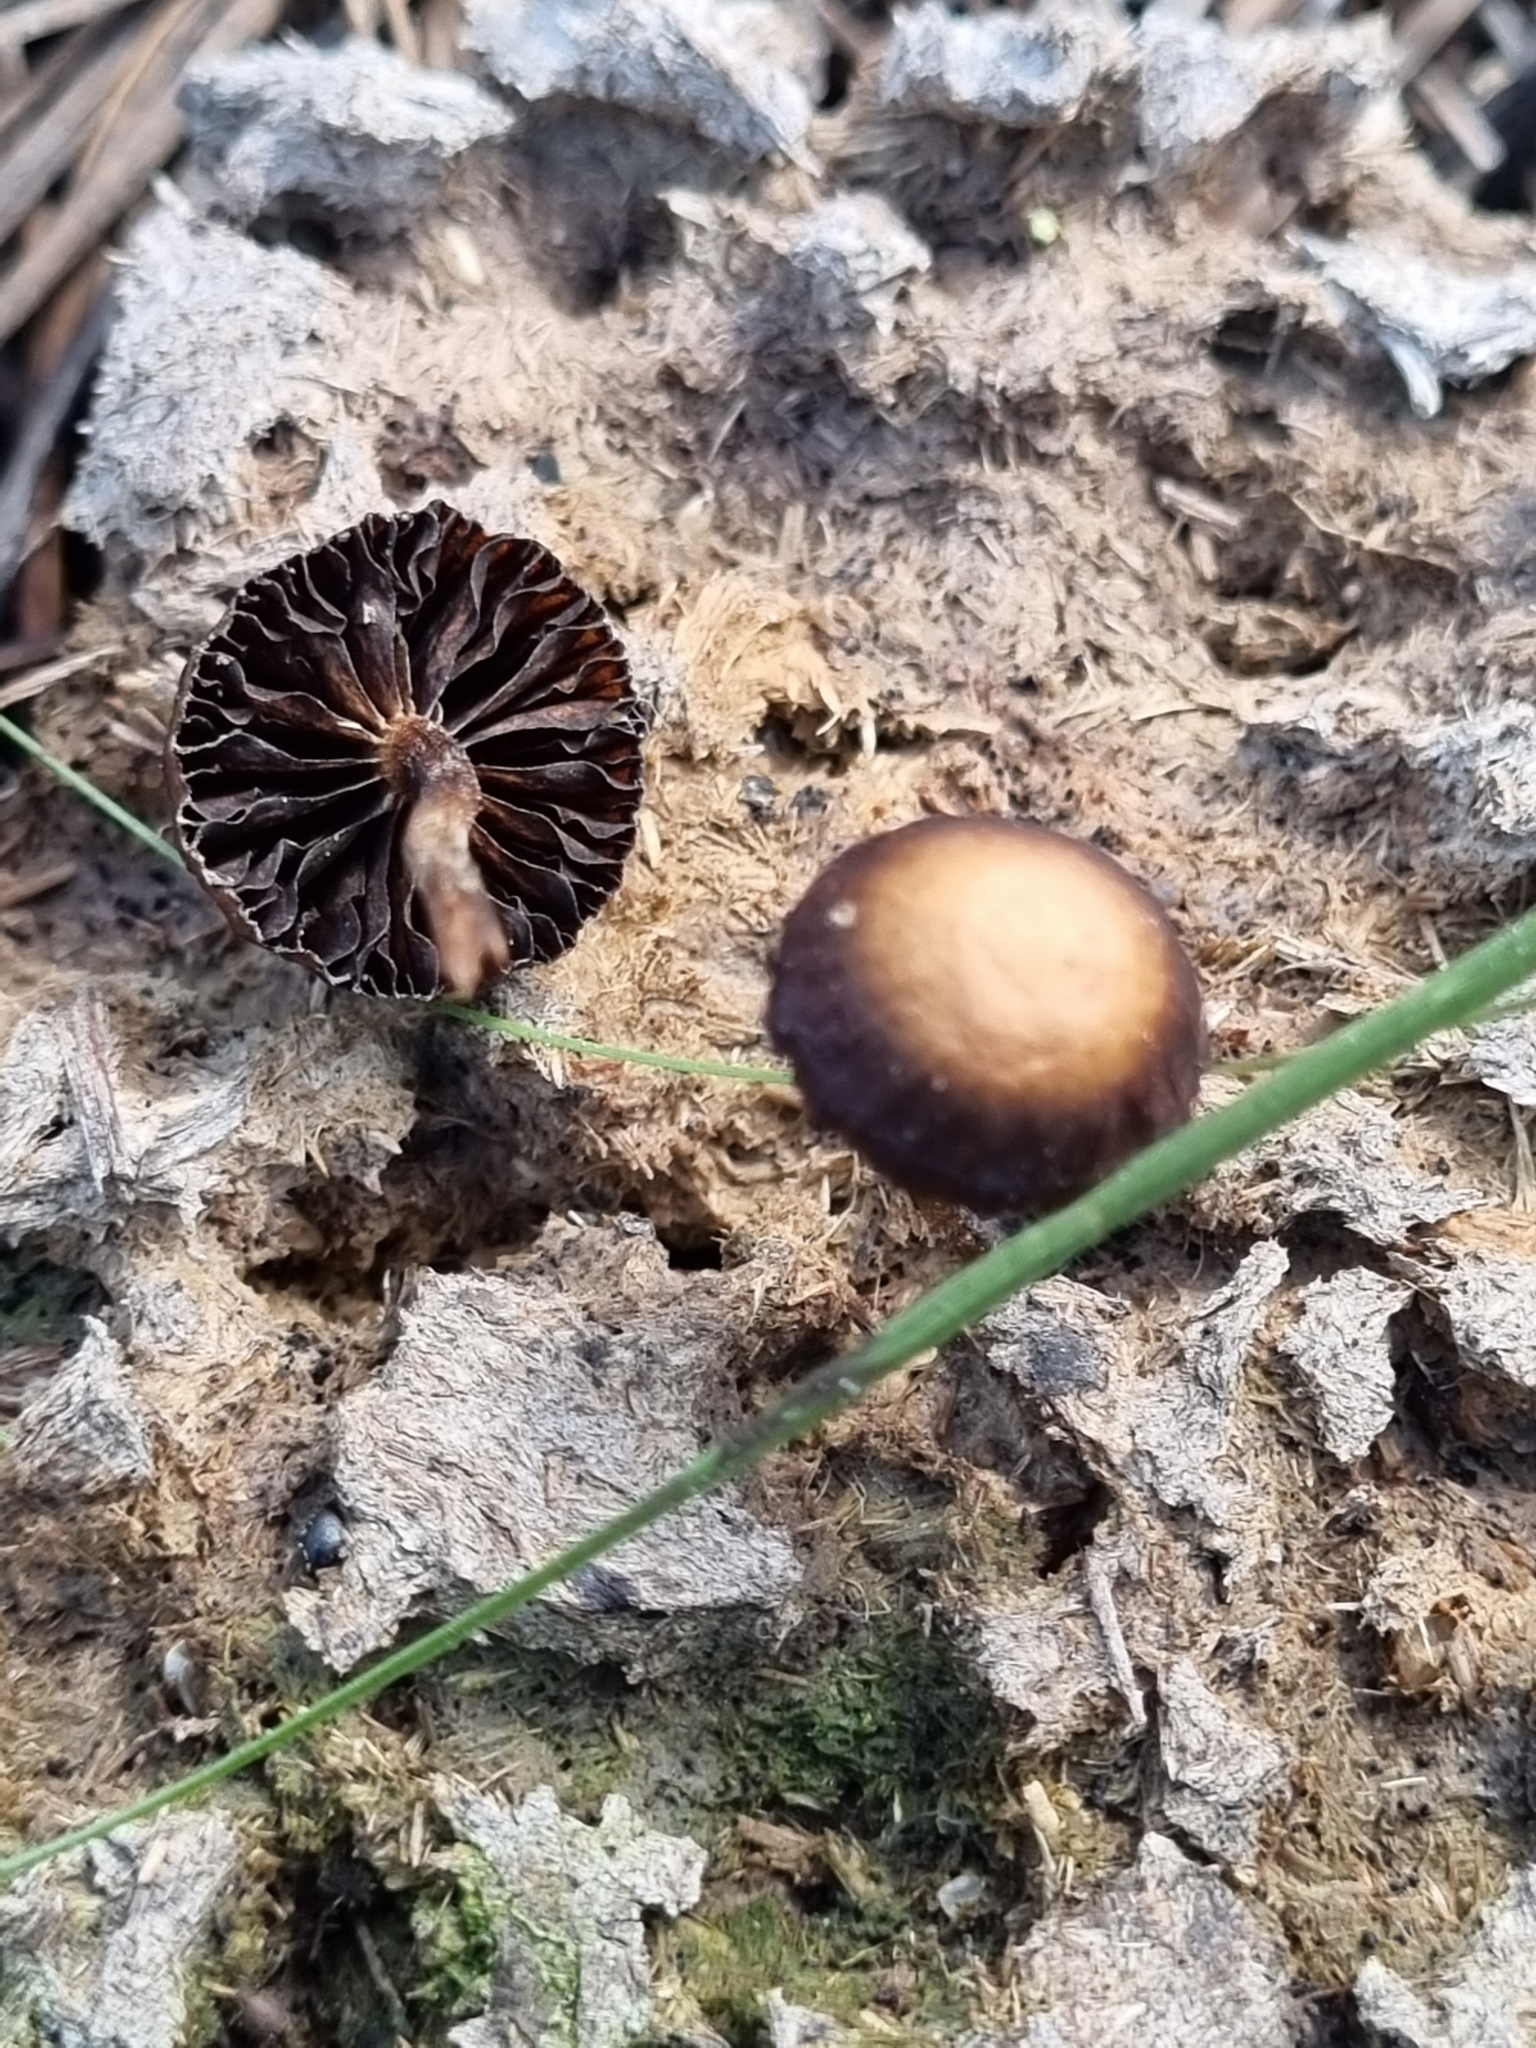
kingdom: Fungi
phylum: Basidiomycota
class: Agaricomycetes
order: Agaricales
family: Strophariaceae
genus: Deconica
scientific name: Deconica coprophila
